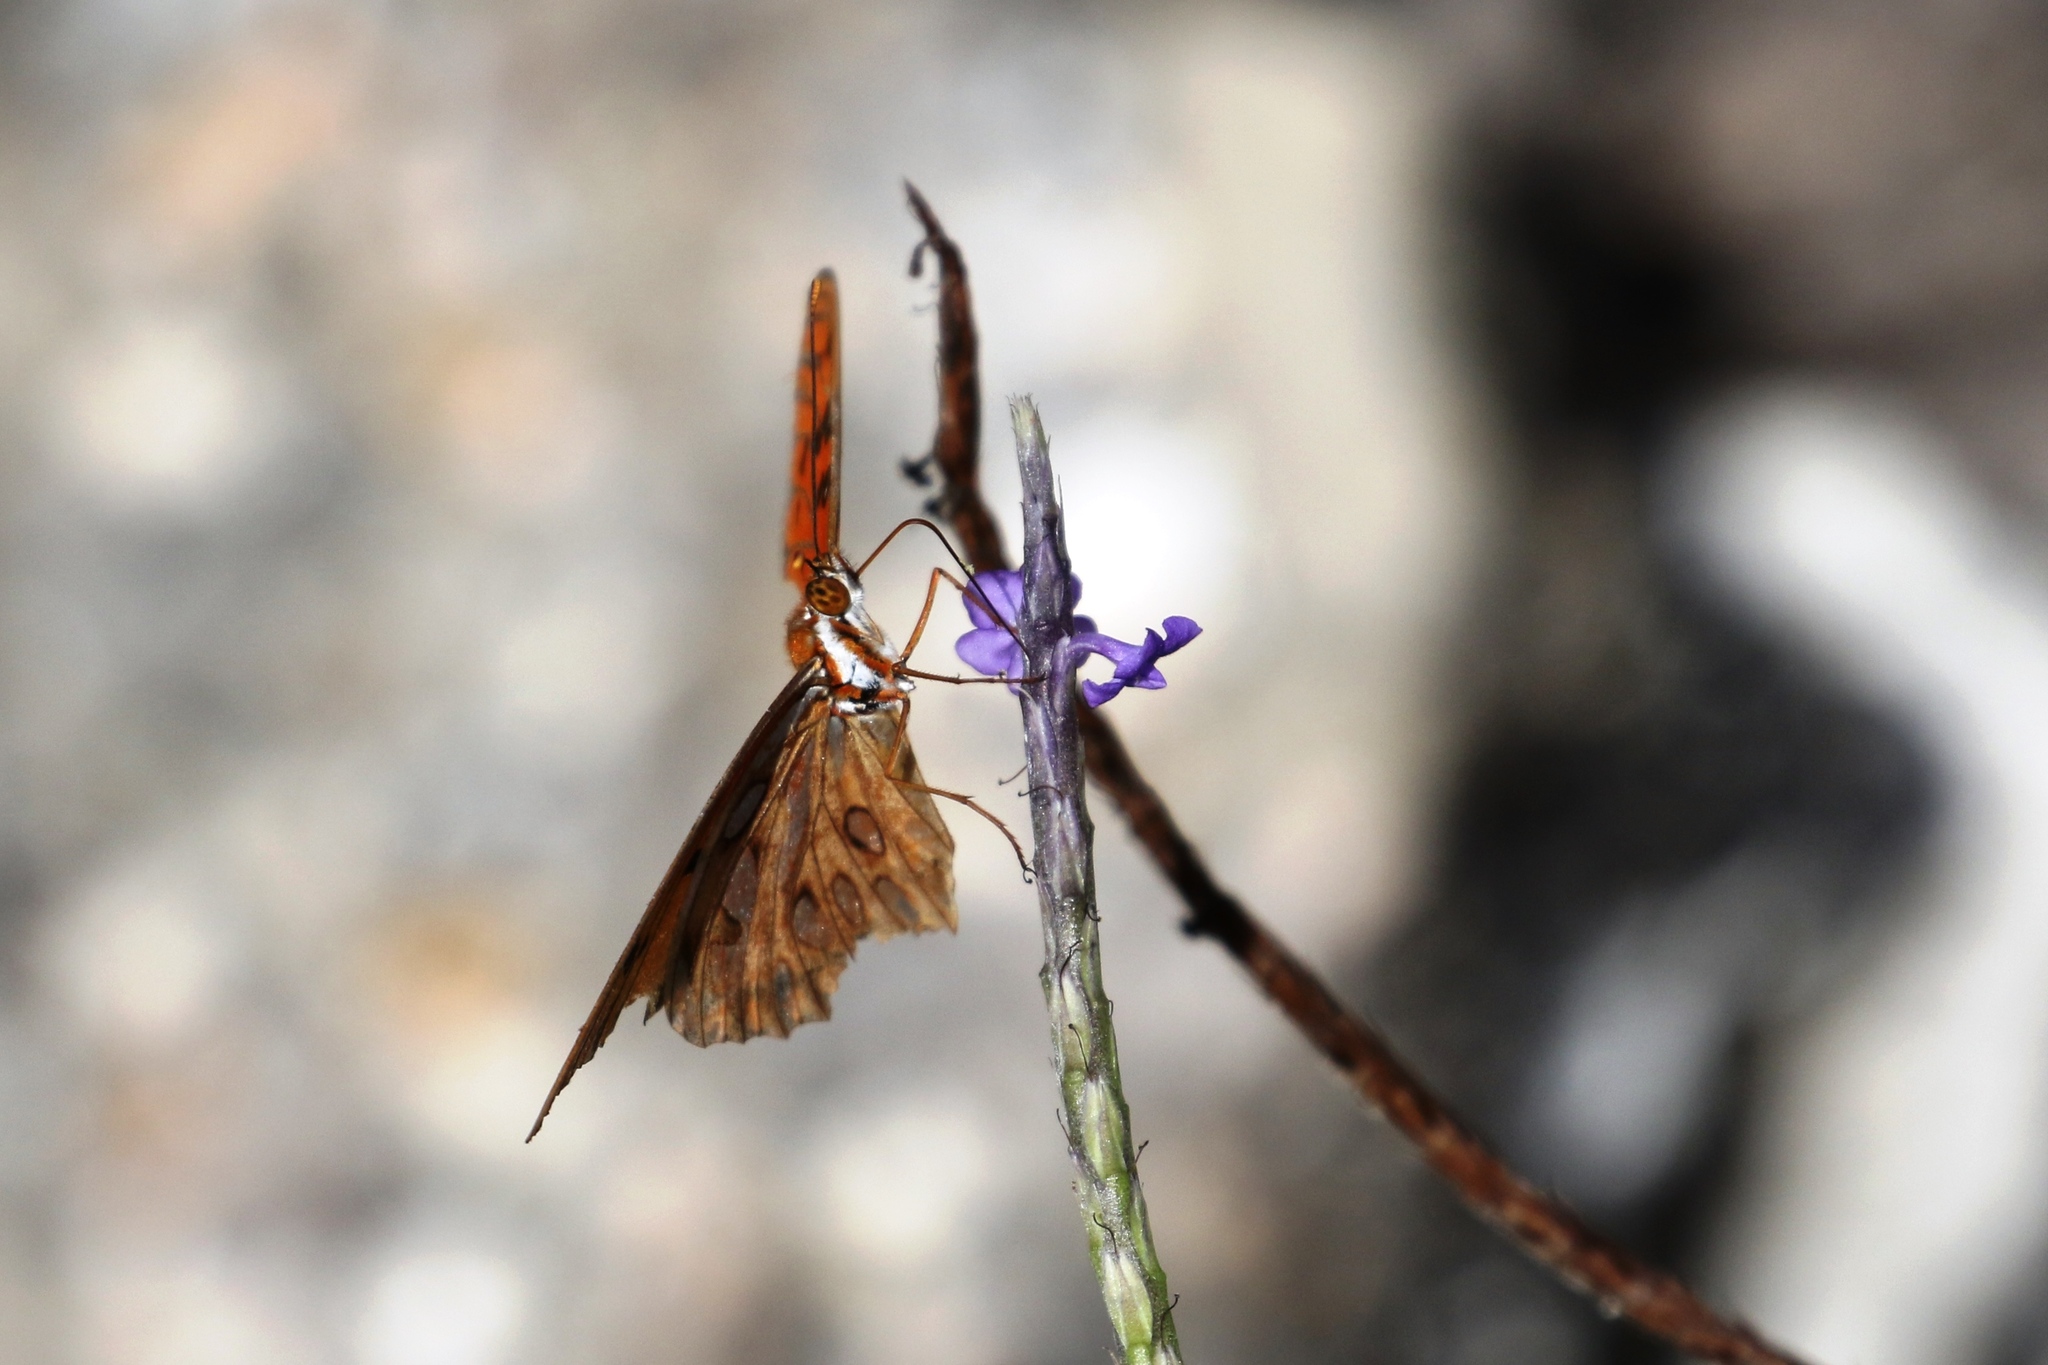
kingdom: Animalia
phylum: Arthropoda
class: Insecta
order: Lepidoptera
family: Nymphalidae
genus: Dione
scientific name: Dione vanillae
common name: Gulf fritillary
